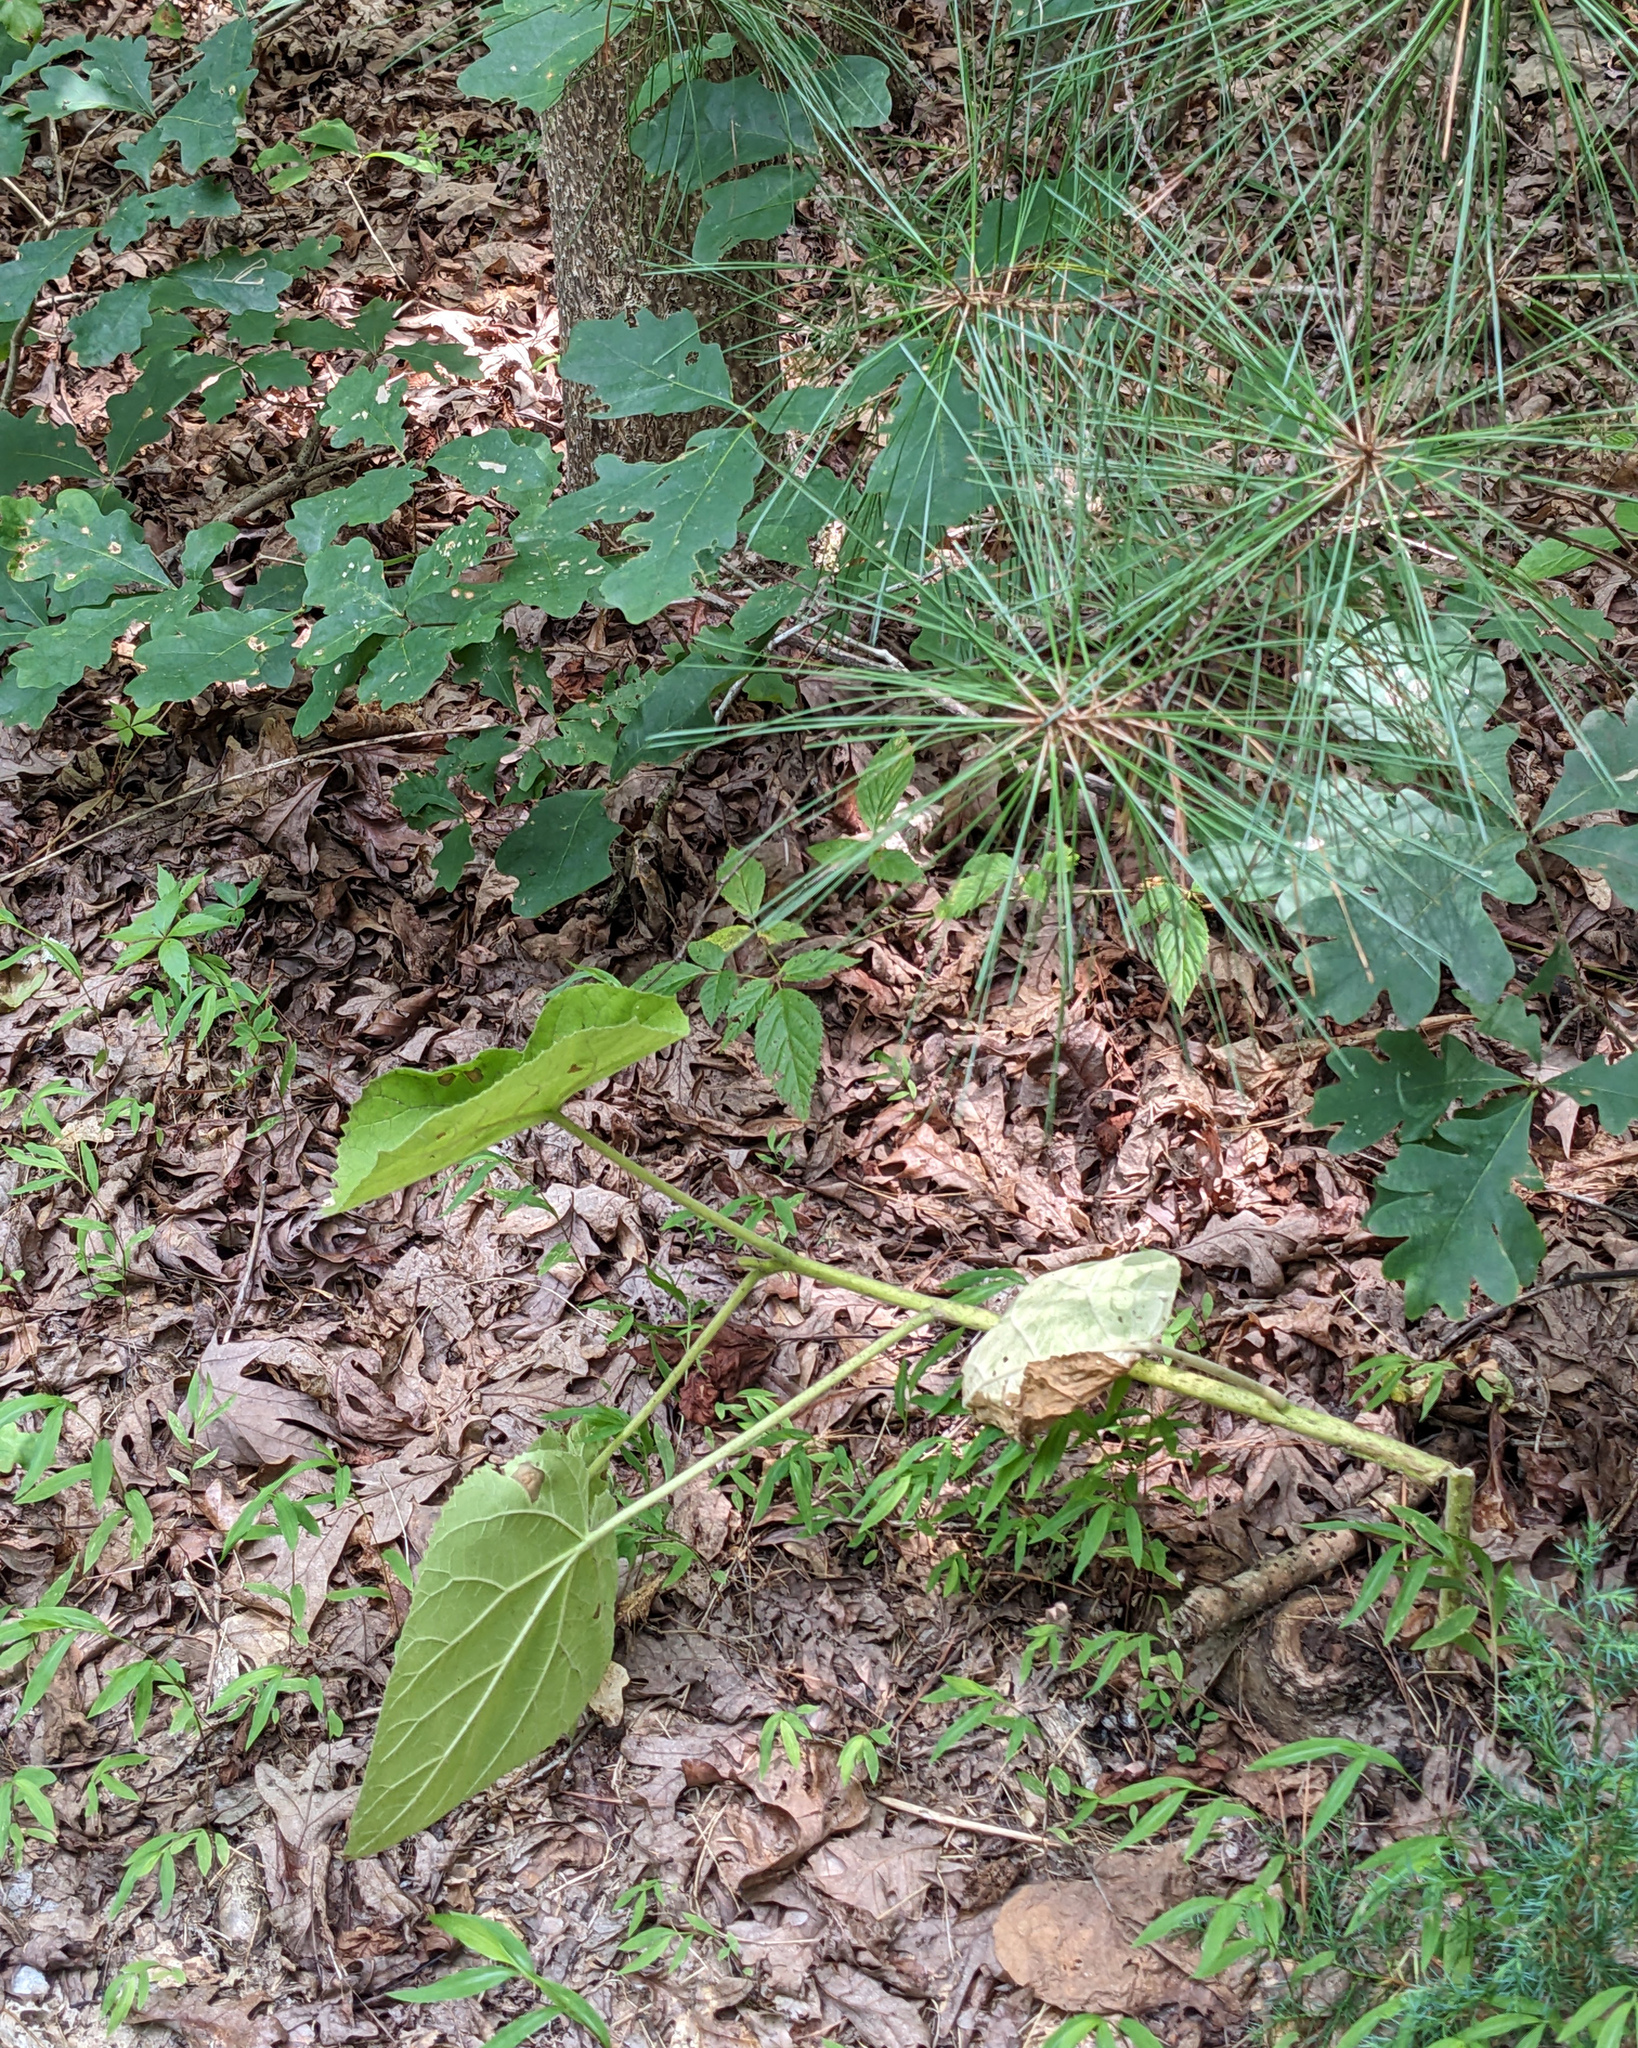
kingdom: Plantae
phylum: Tracheophyta
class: Magnoliopsida
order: Lamiales
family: Paulowniaceae
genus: Paulownia
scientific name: Paulownia tomentosa
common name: Foxglove-tree
